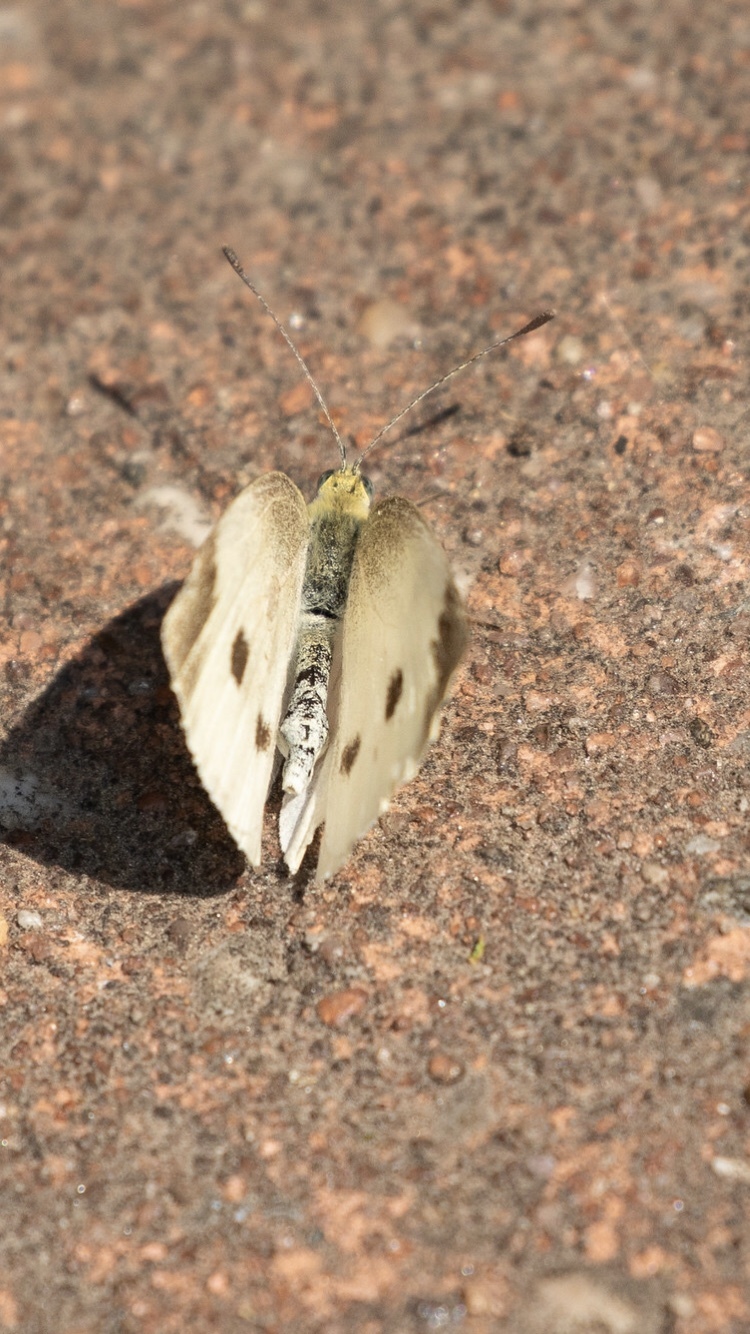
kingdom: Animalia
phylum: Arthropoda
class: Insecta
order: Lepidoptera
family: Pieridae
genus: Pieris
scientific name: Pieris rapae
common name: Small white
